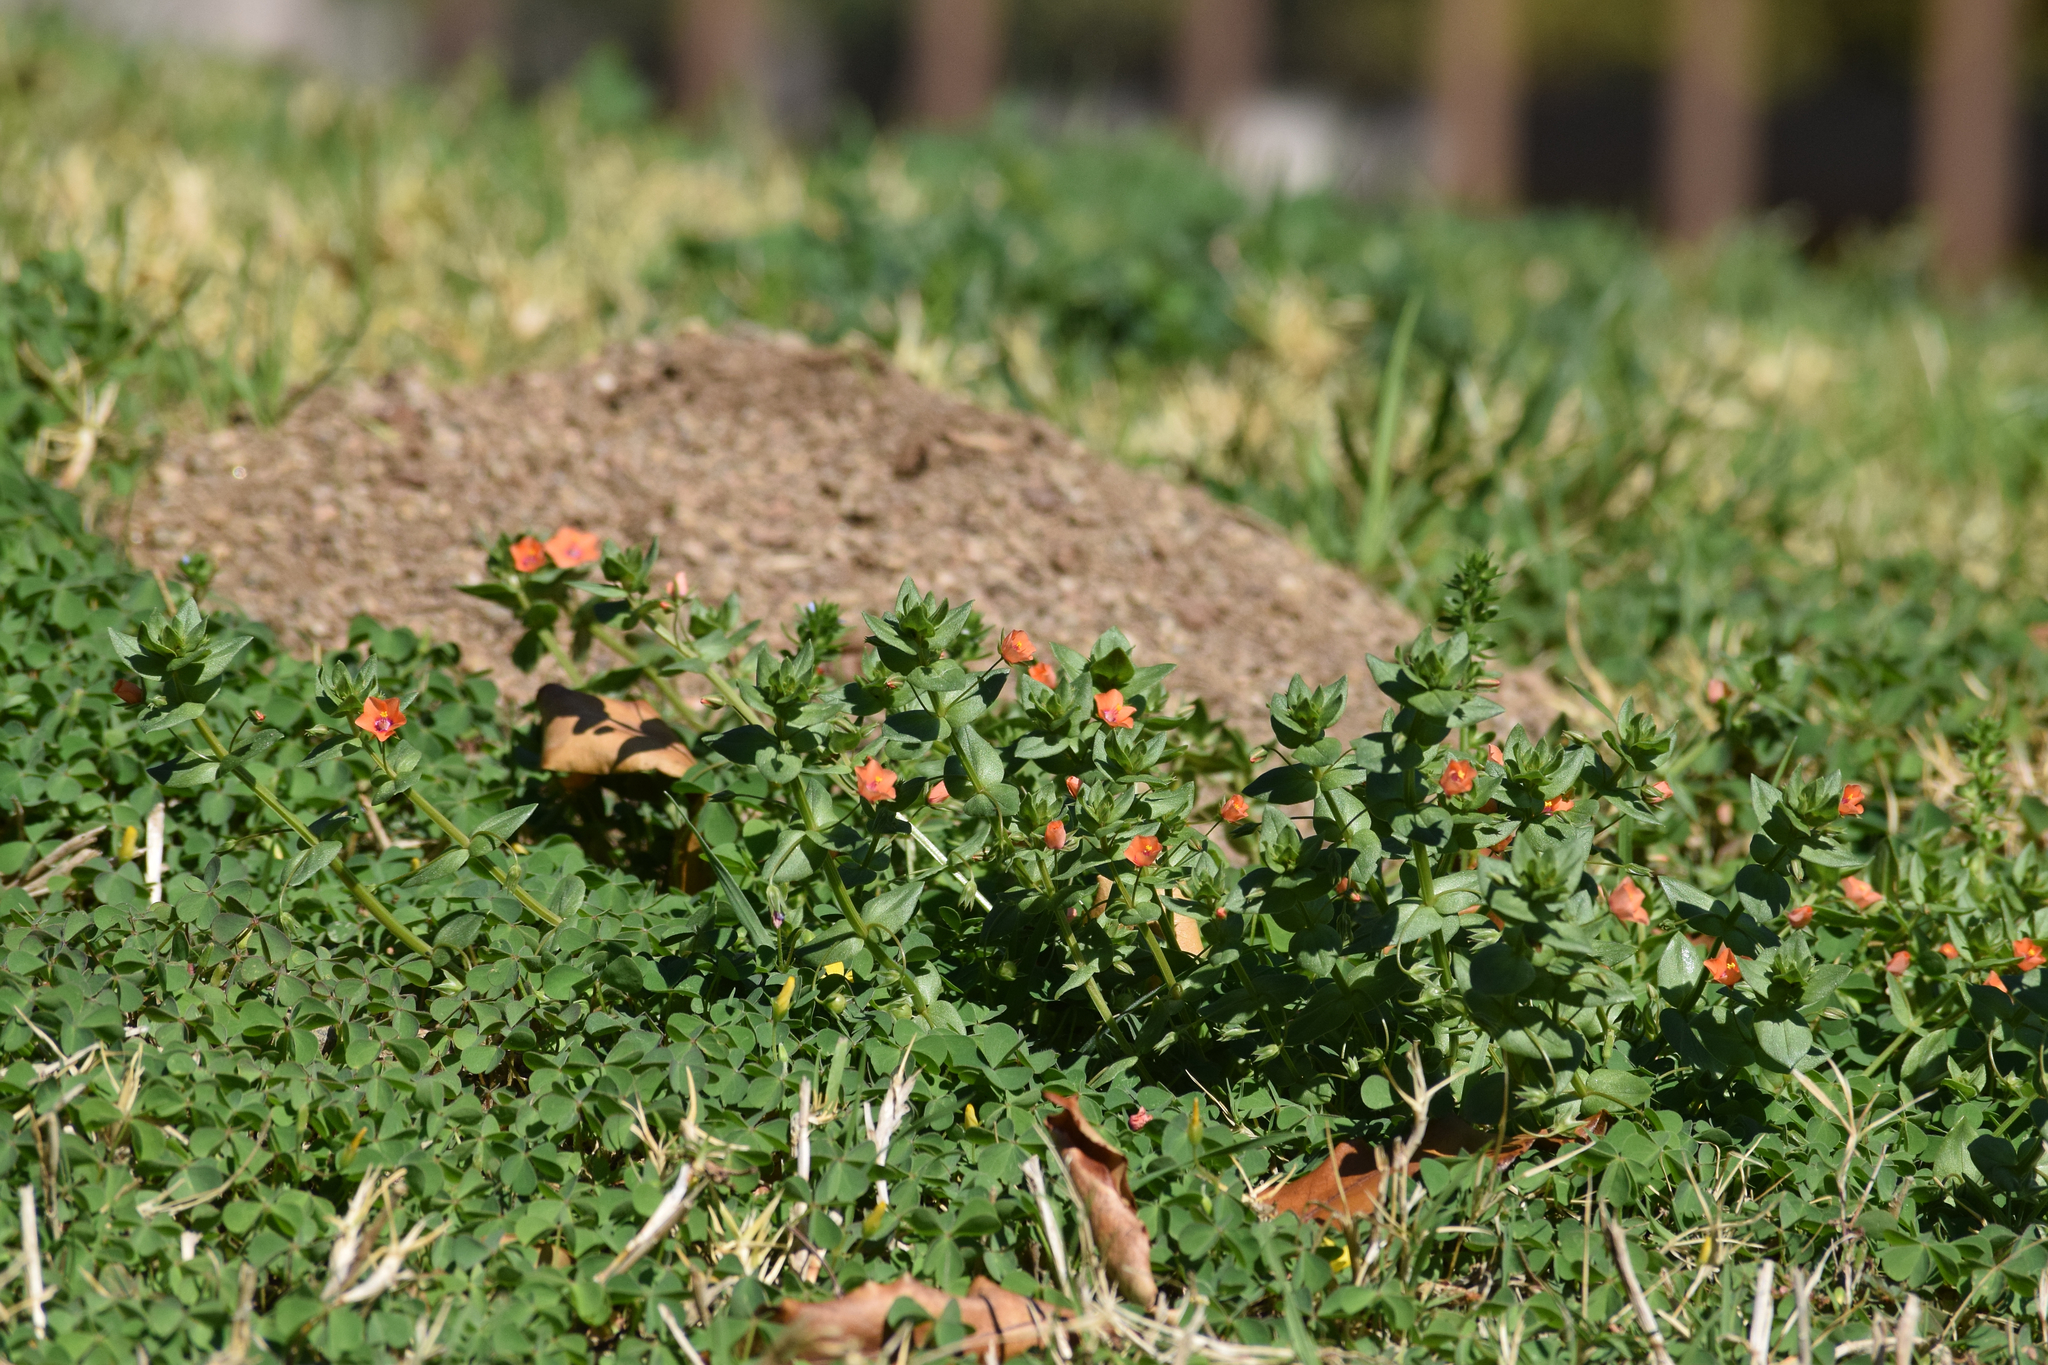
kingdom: Plantae
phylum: Tracheophyta
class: Magnoliopsida
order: Ericales
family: Primulaceae
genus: Lysimachia
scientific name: Lysimachia arvensis
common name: Scarlet pimpernel
